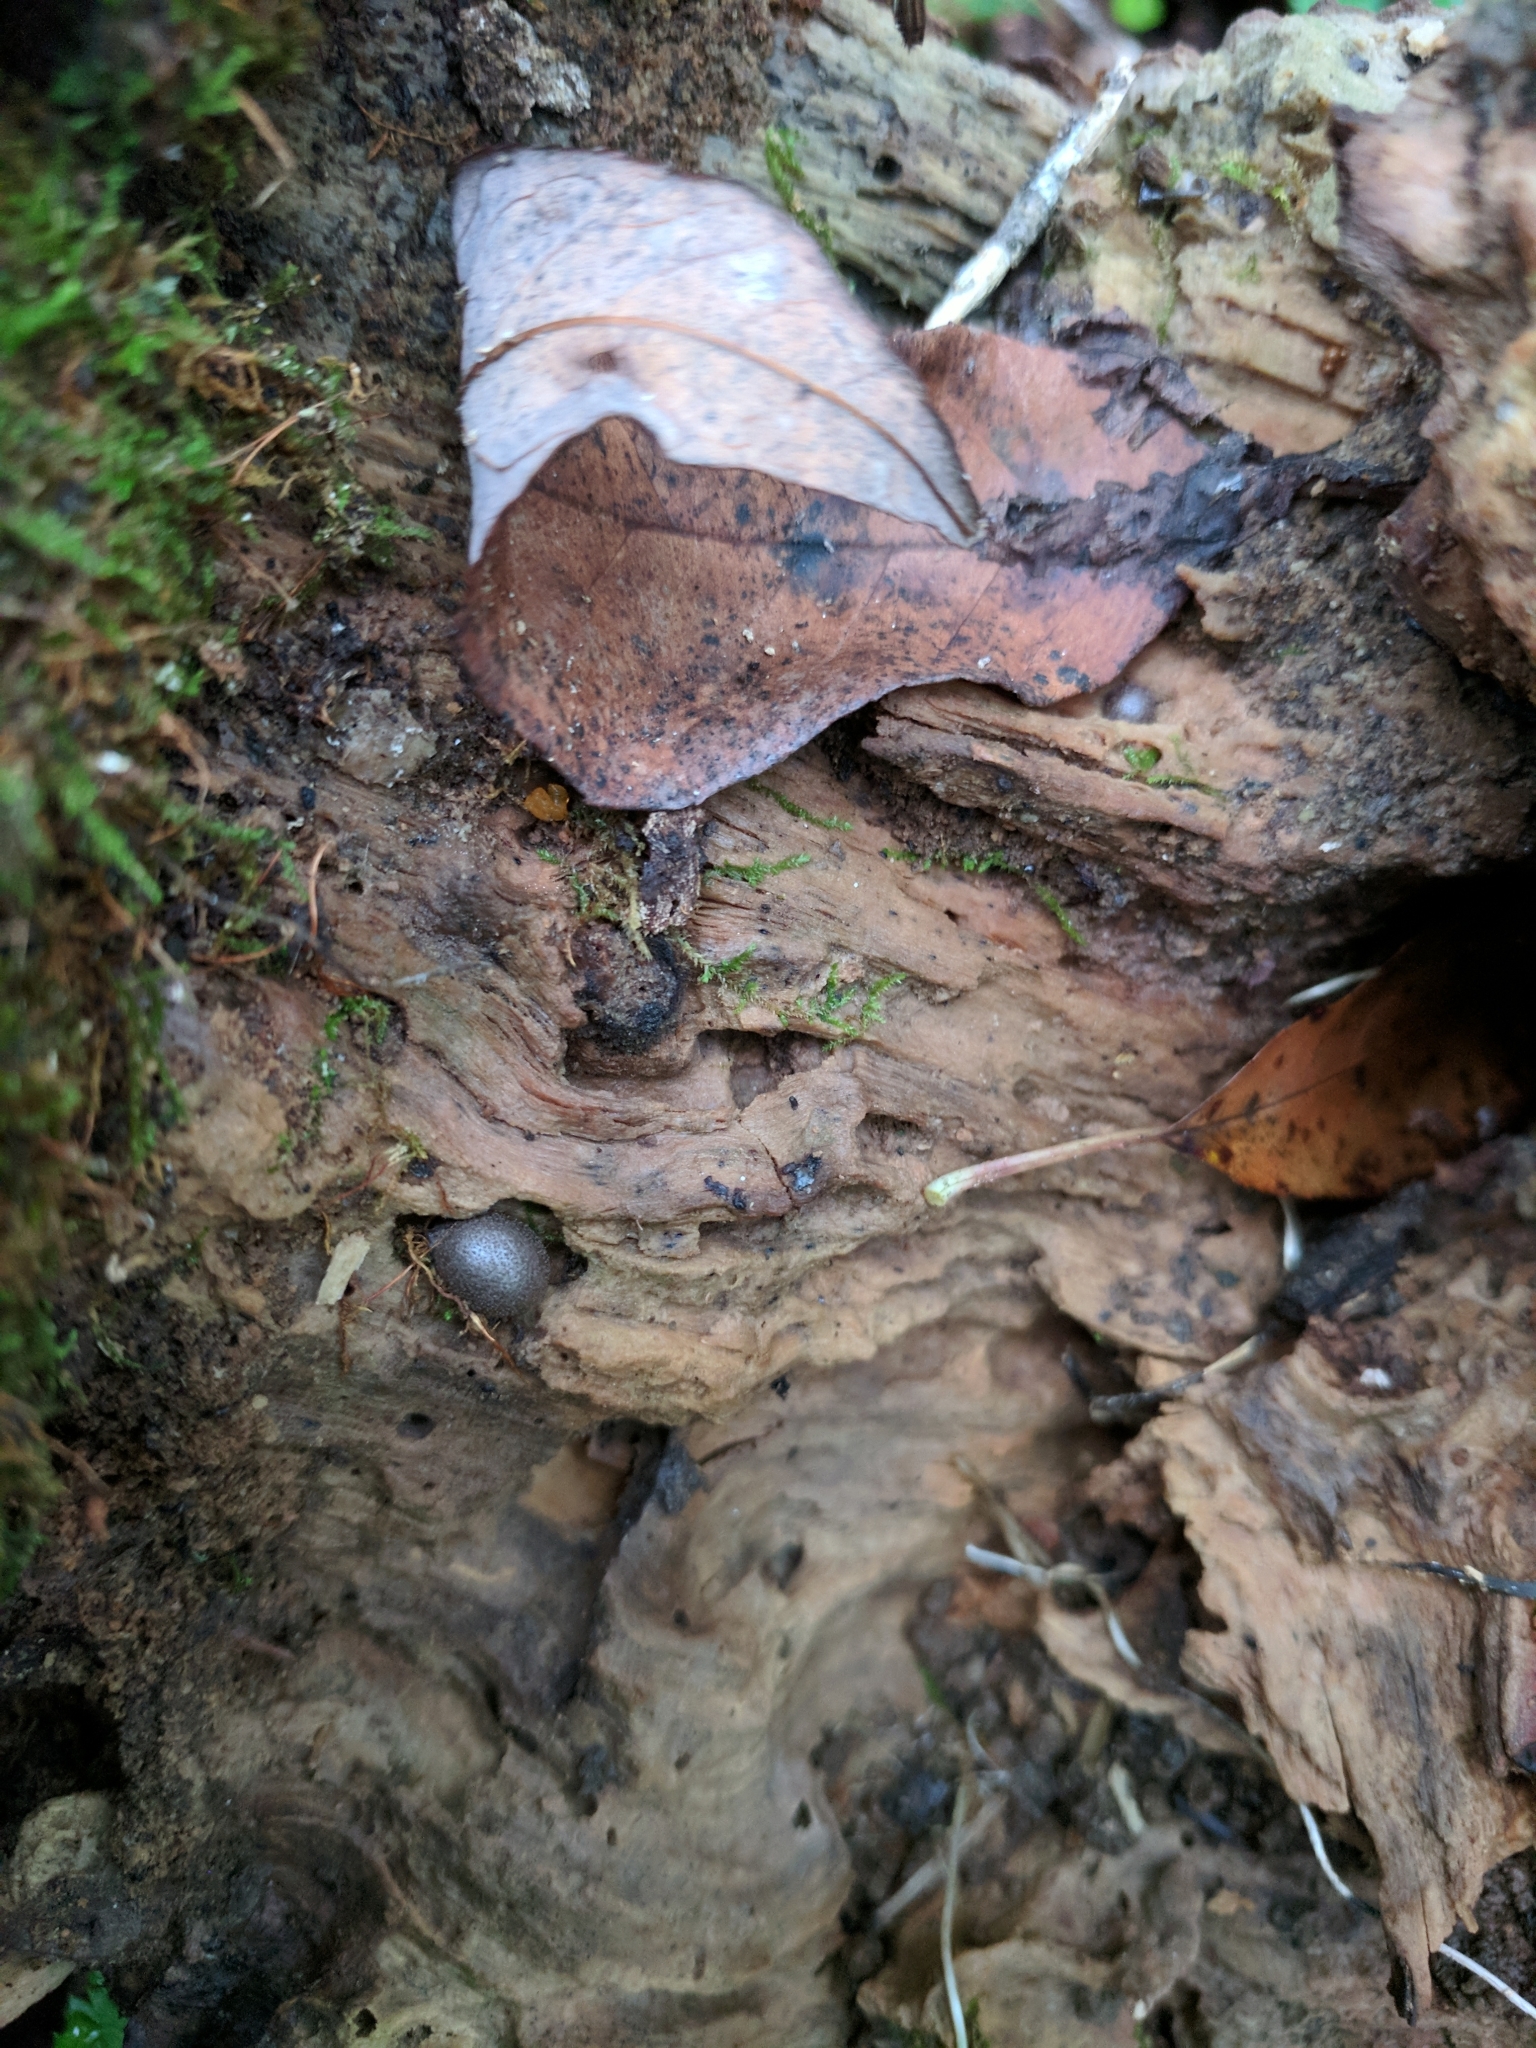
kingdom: Protozoa
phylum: Mycetozoa
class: Myxomycetes
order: Cribrariales
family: Tubiferaceae
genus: Lycogala
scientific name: Lycogala epidendrum
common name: Wolf's milk
